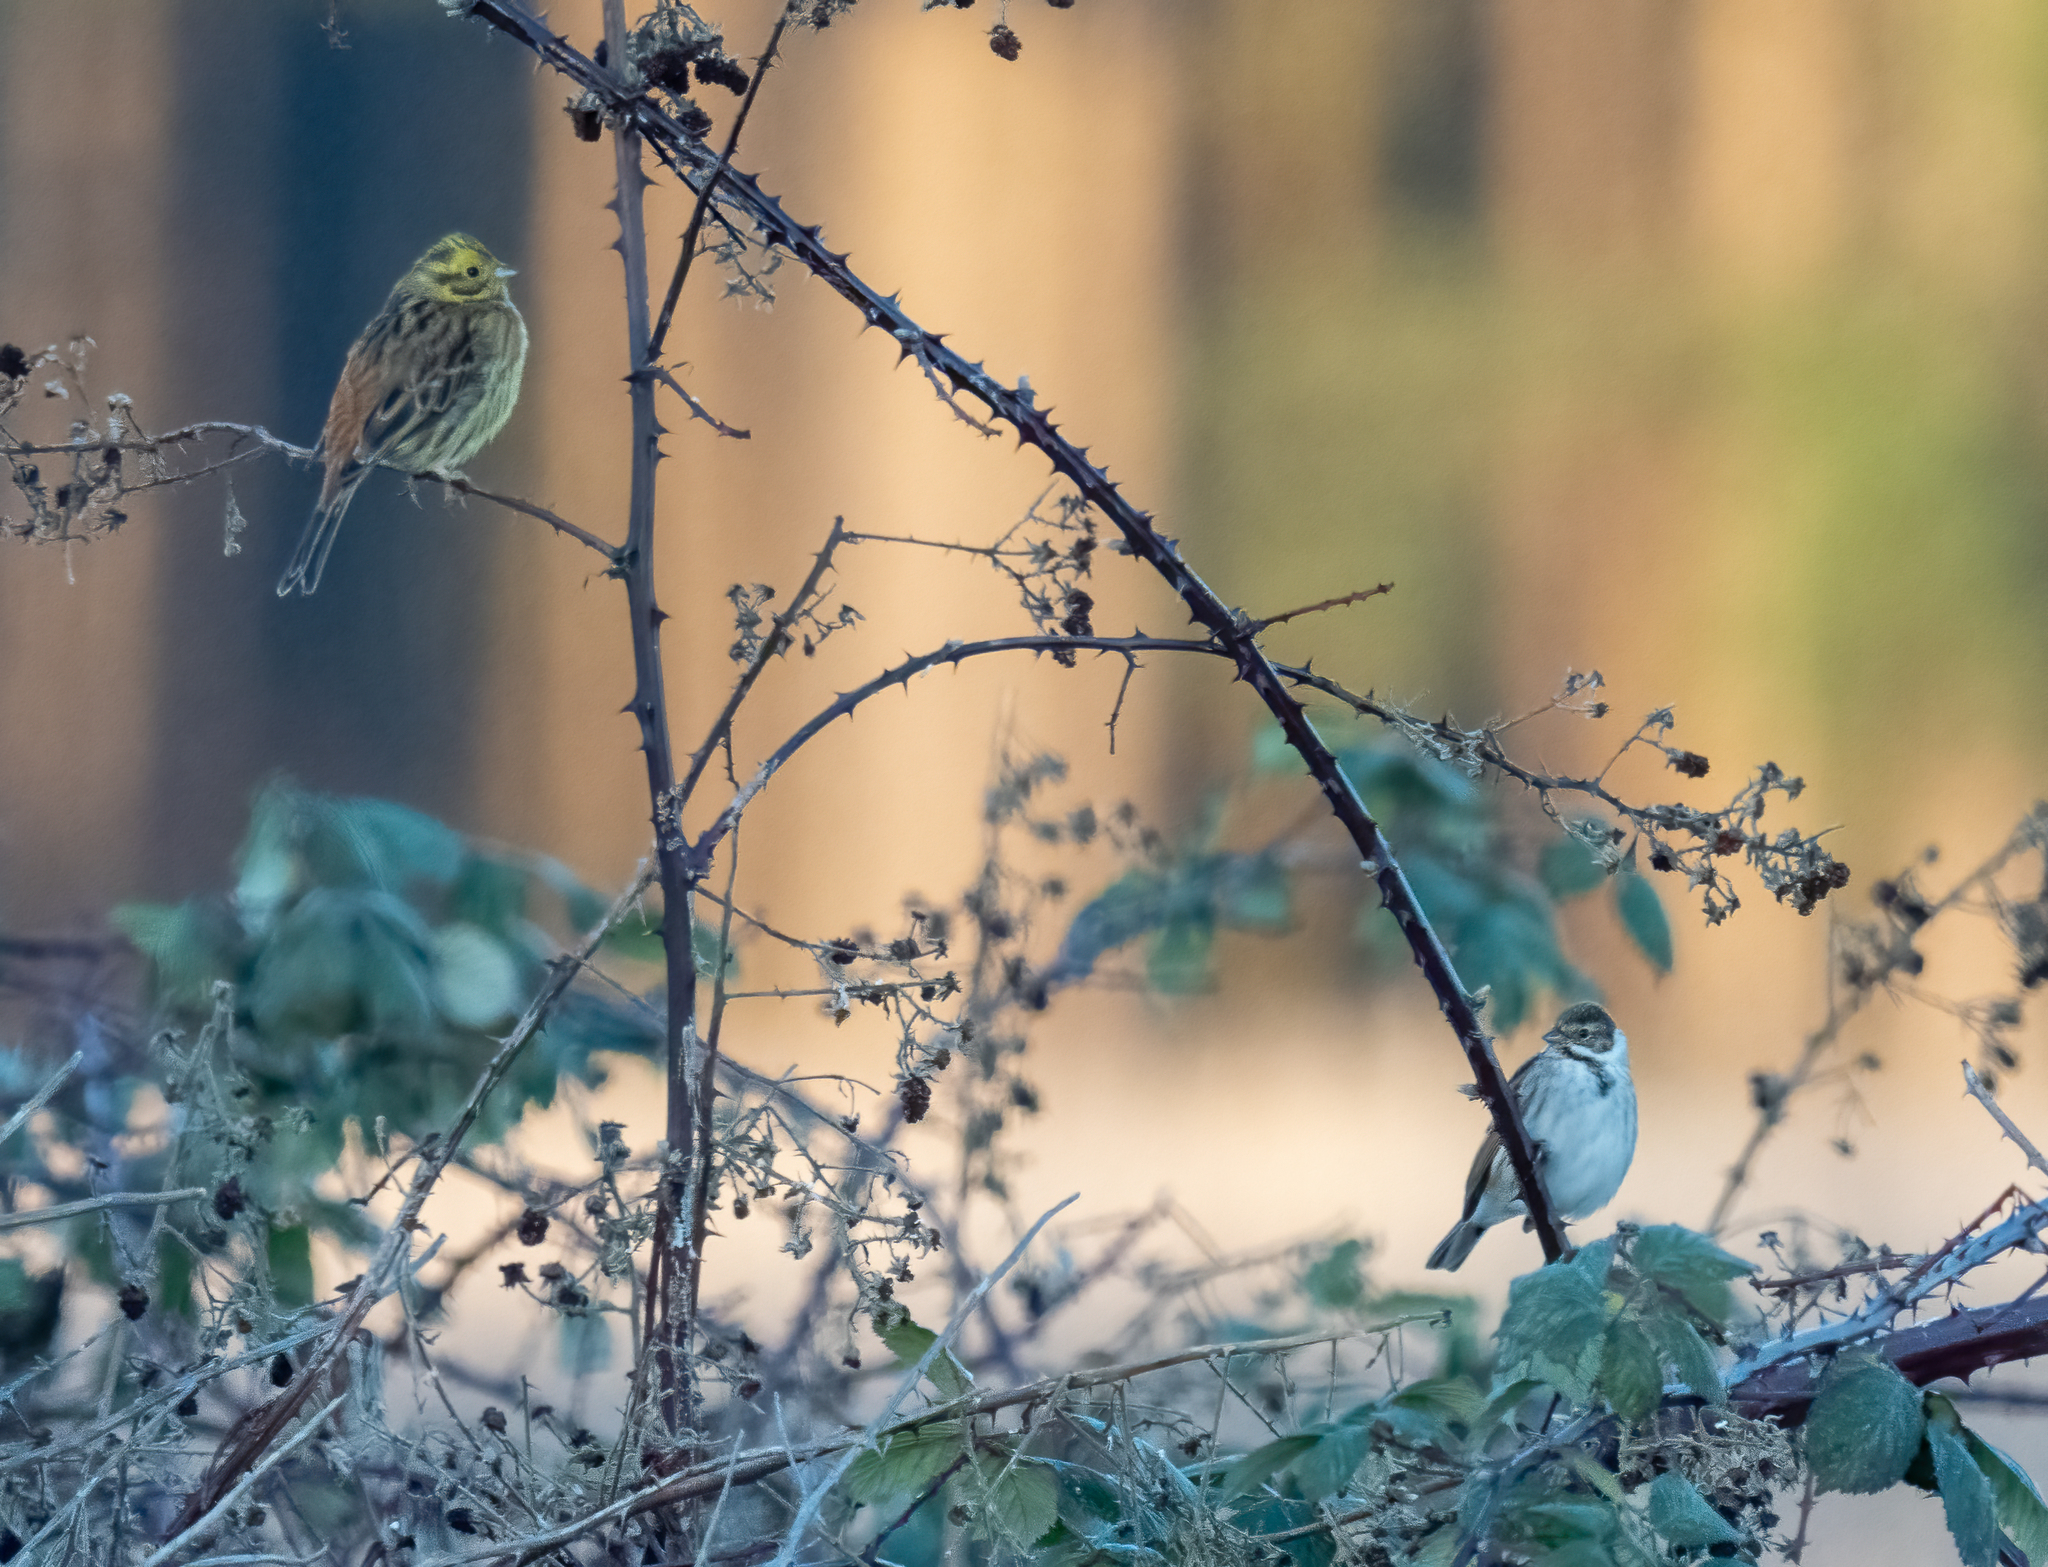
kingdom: Animalia
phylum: Chordata
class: Aves
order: Passeriformes
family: Emberizidae
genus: Emberiza
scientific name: Emberiza citrinella
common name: Yellowhammer
